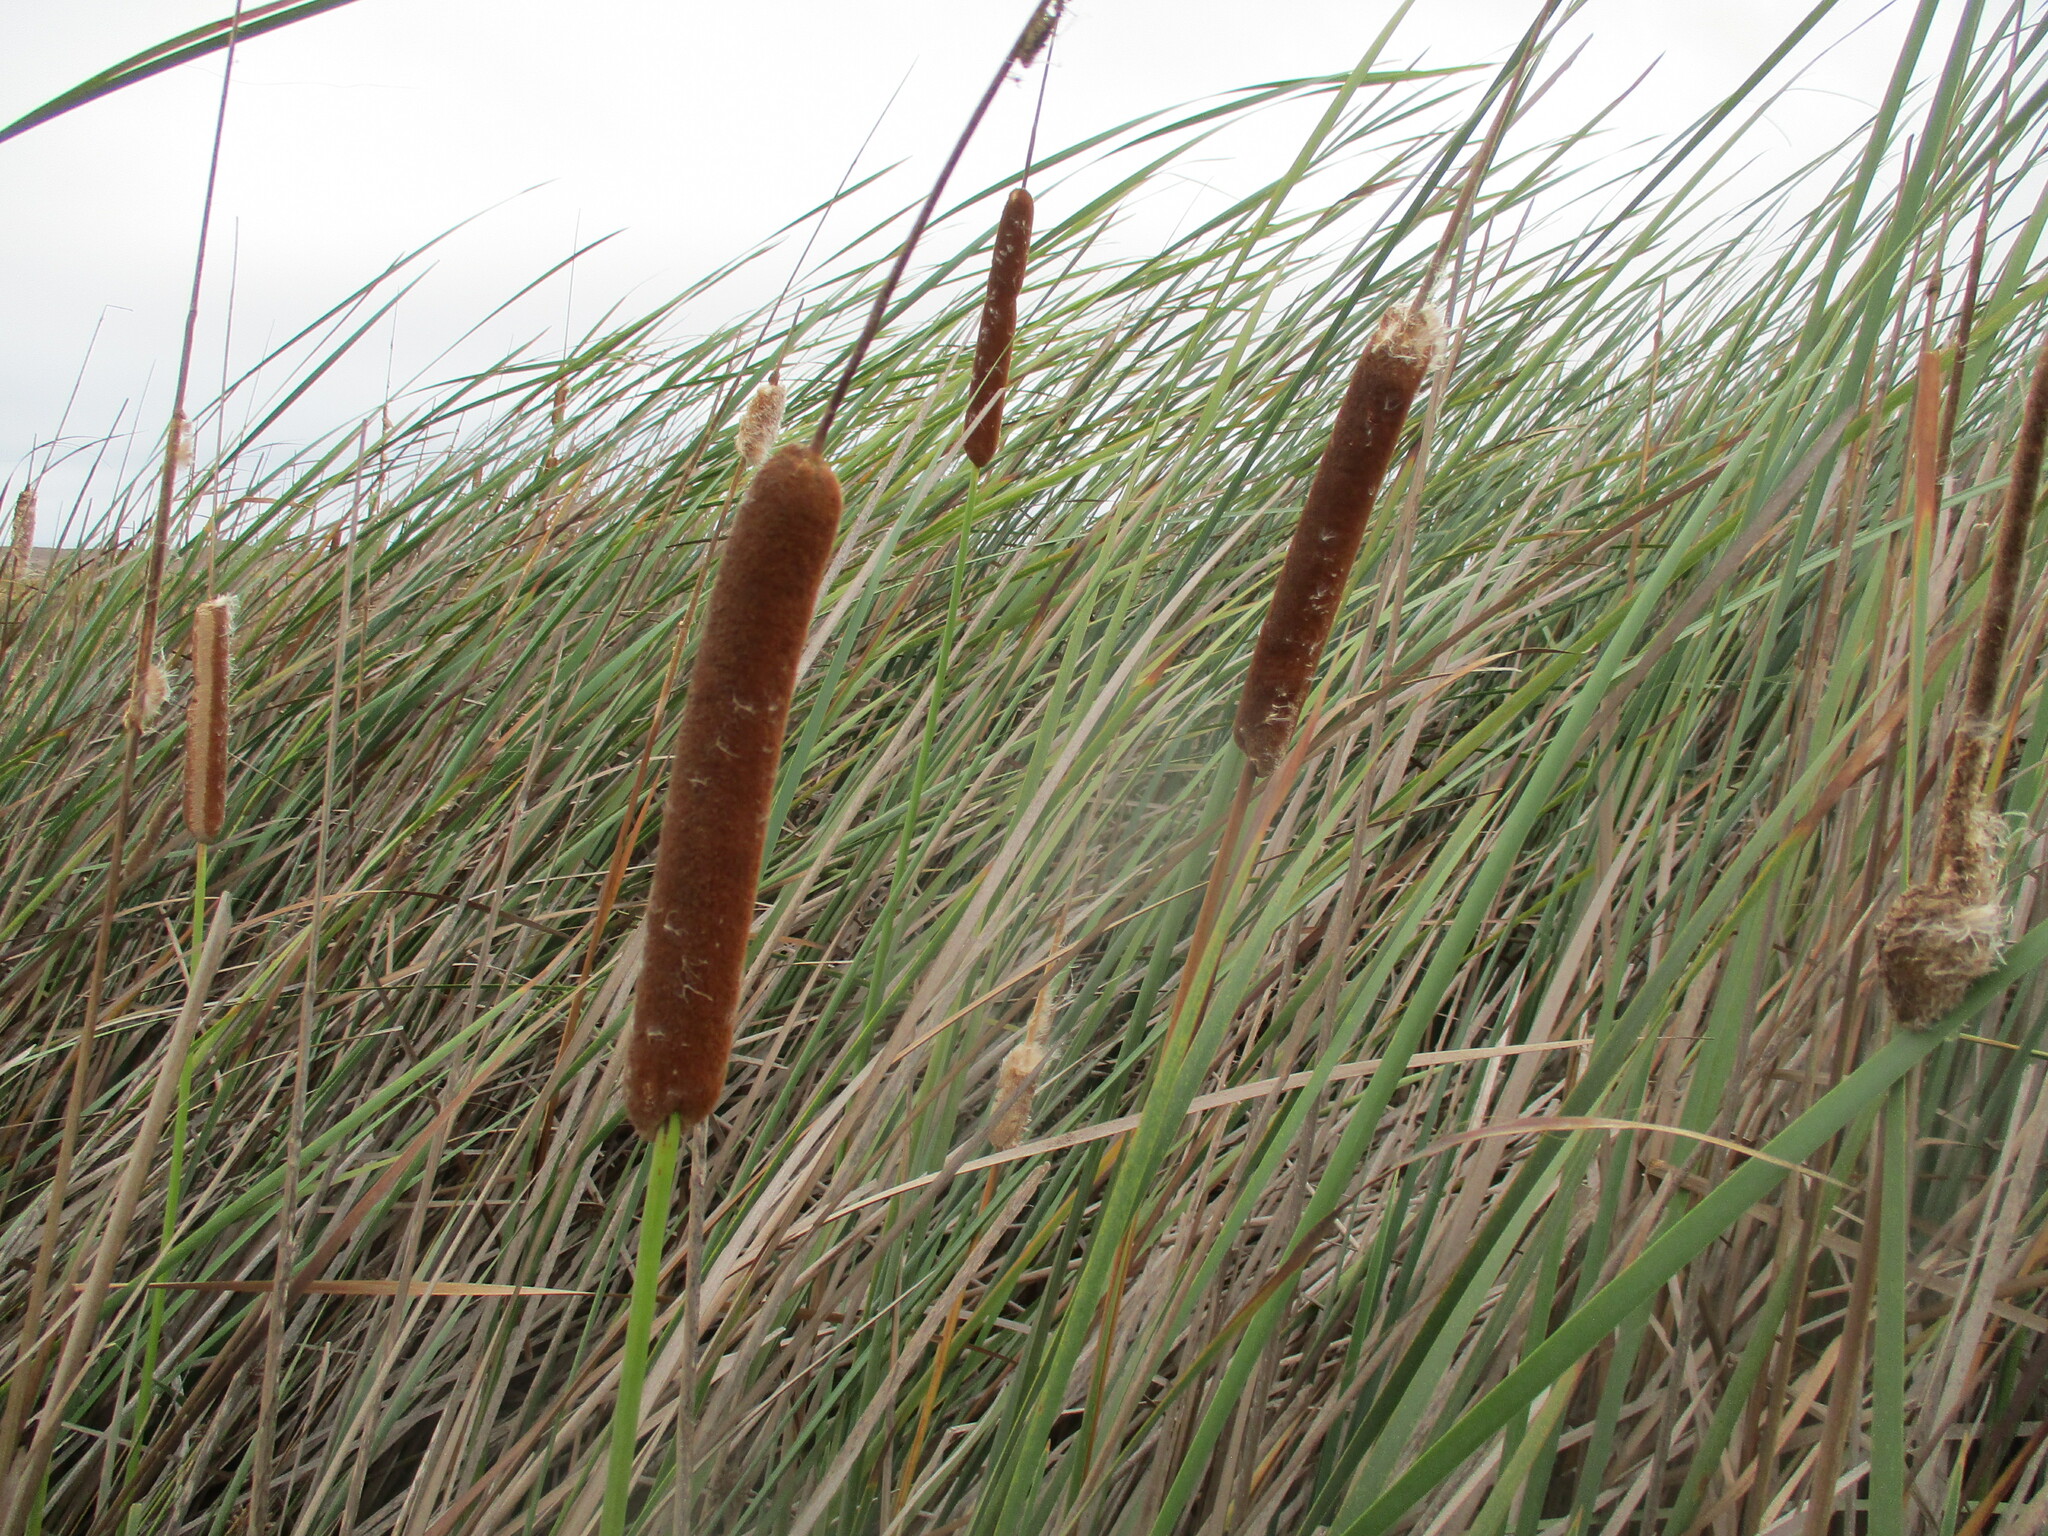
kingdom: Plantae
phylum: Tracheophyta
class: Liliopsida
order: Poales
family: Typhaceae
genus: Typha
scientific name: Typha capensis
